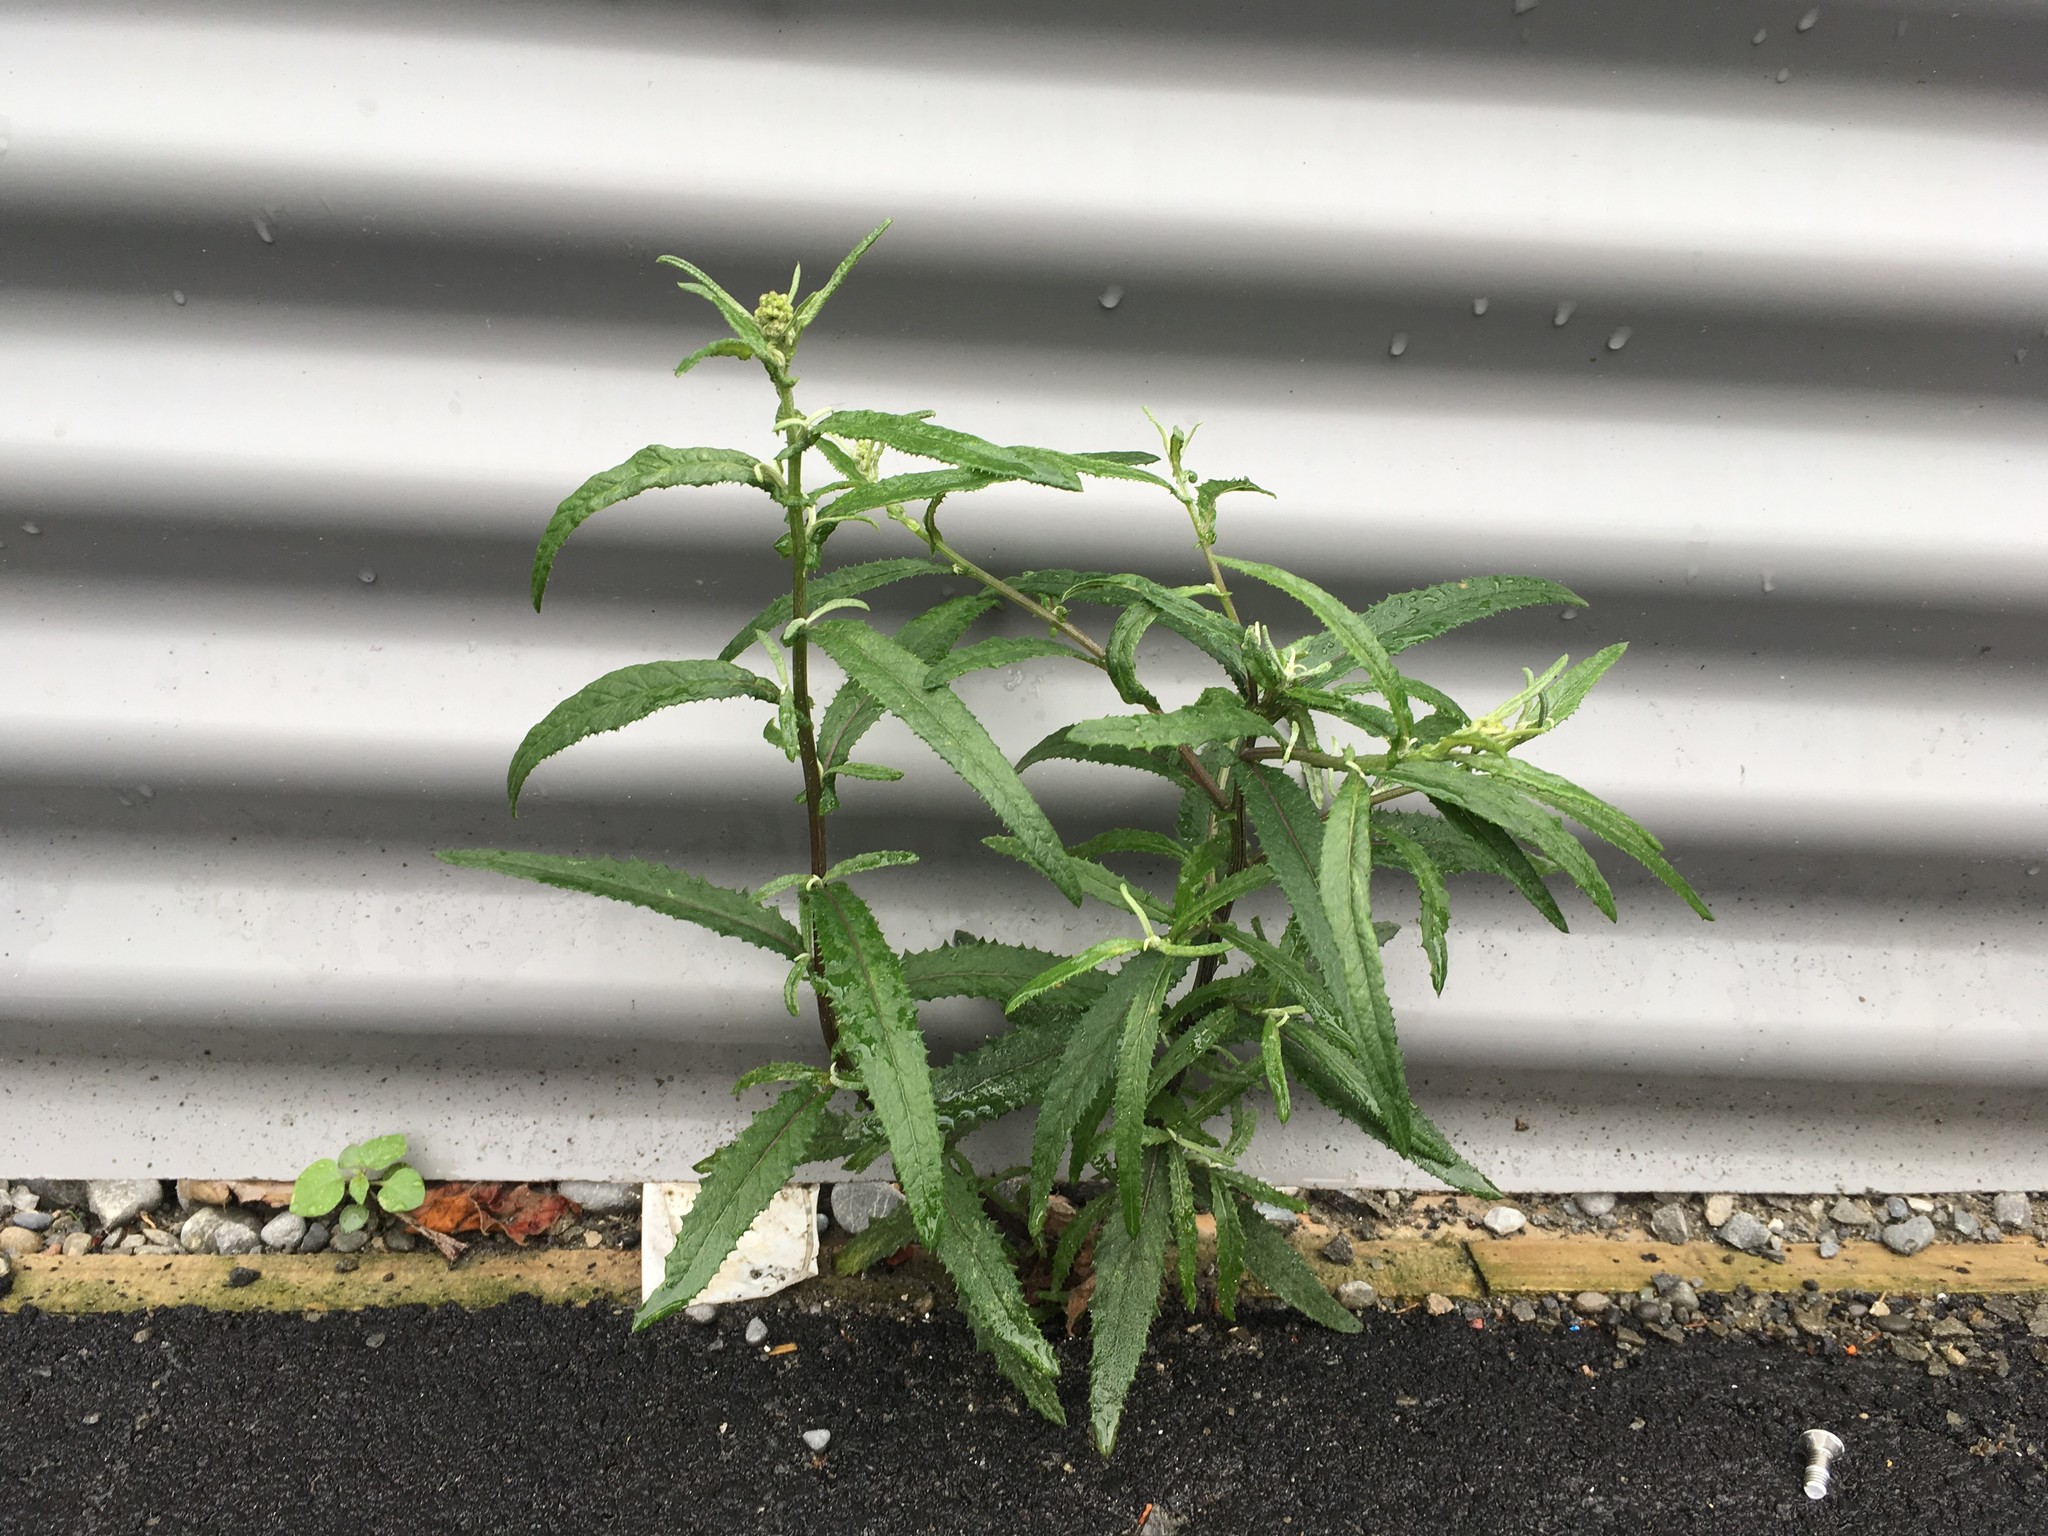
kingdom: Plantae
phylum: Tracheophyta
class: Magnoliopsida
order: Asterales
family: Asteraceae
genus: Senecio
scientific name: Senecio minimus
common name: Toothed fireweed
